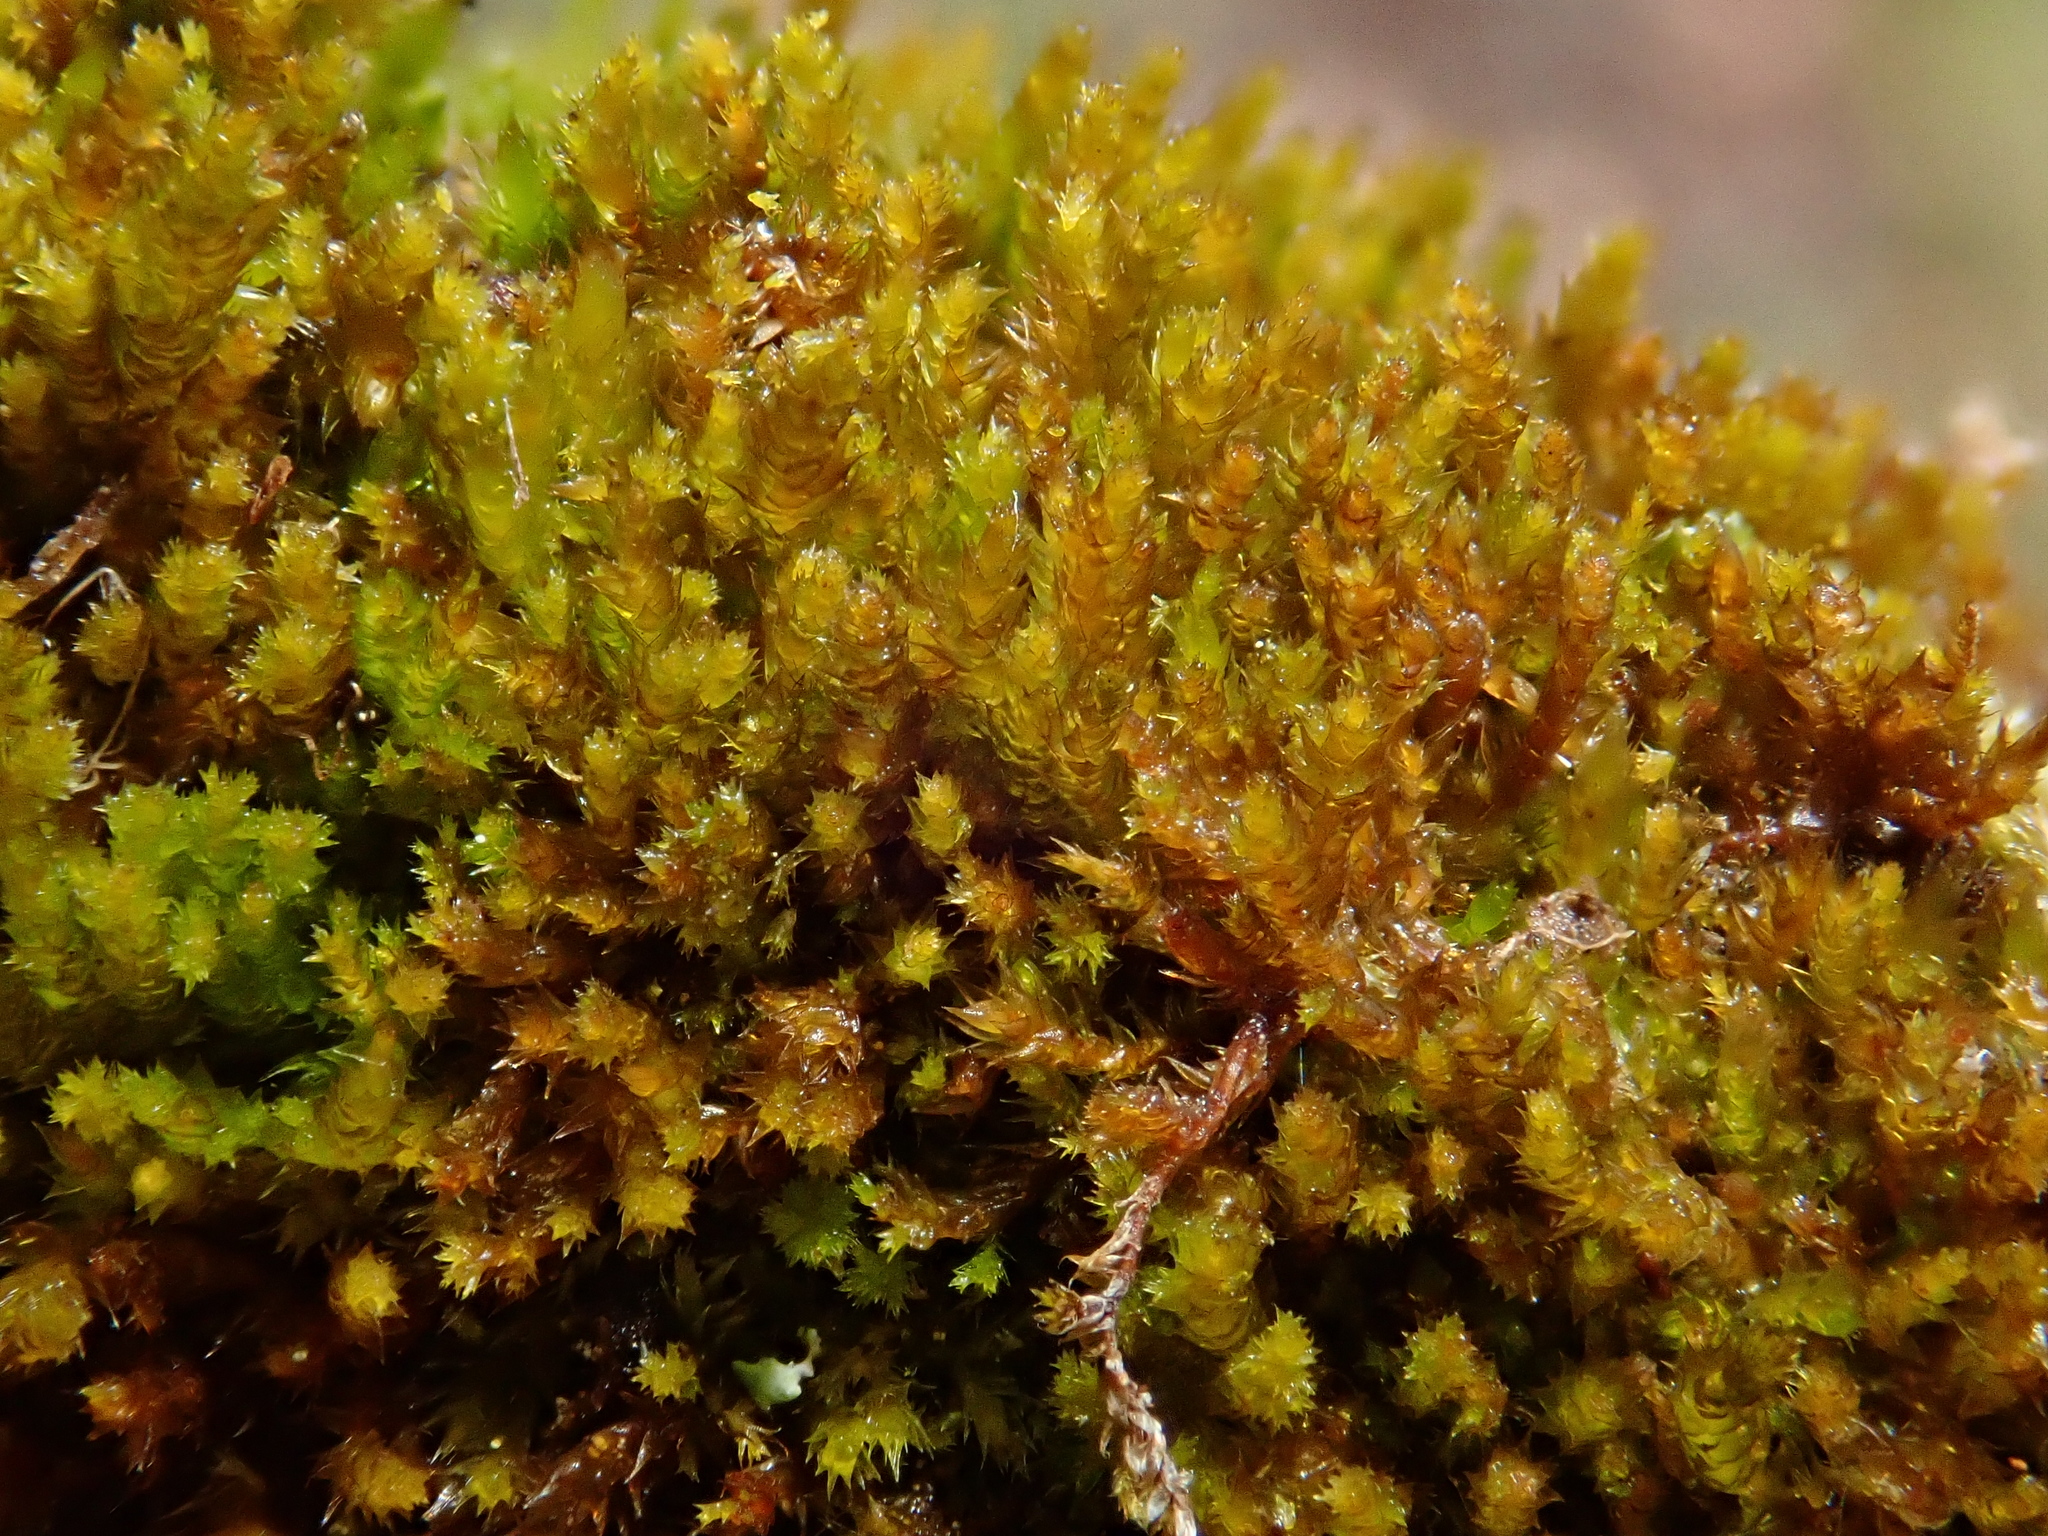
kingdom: Plantae
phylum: Bryophyta
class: Bryopsida
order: Hypnales
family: Pylaisiadelphaceae
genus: Platygyrium
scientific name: Platygyrium repens
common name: Flat-brocade moss
